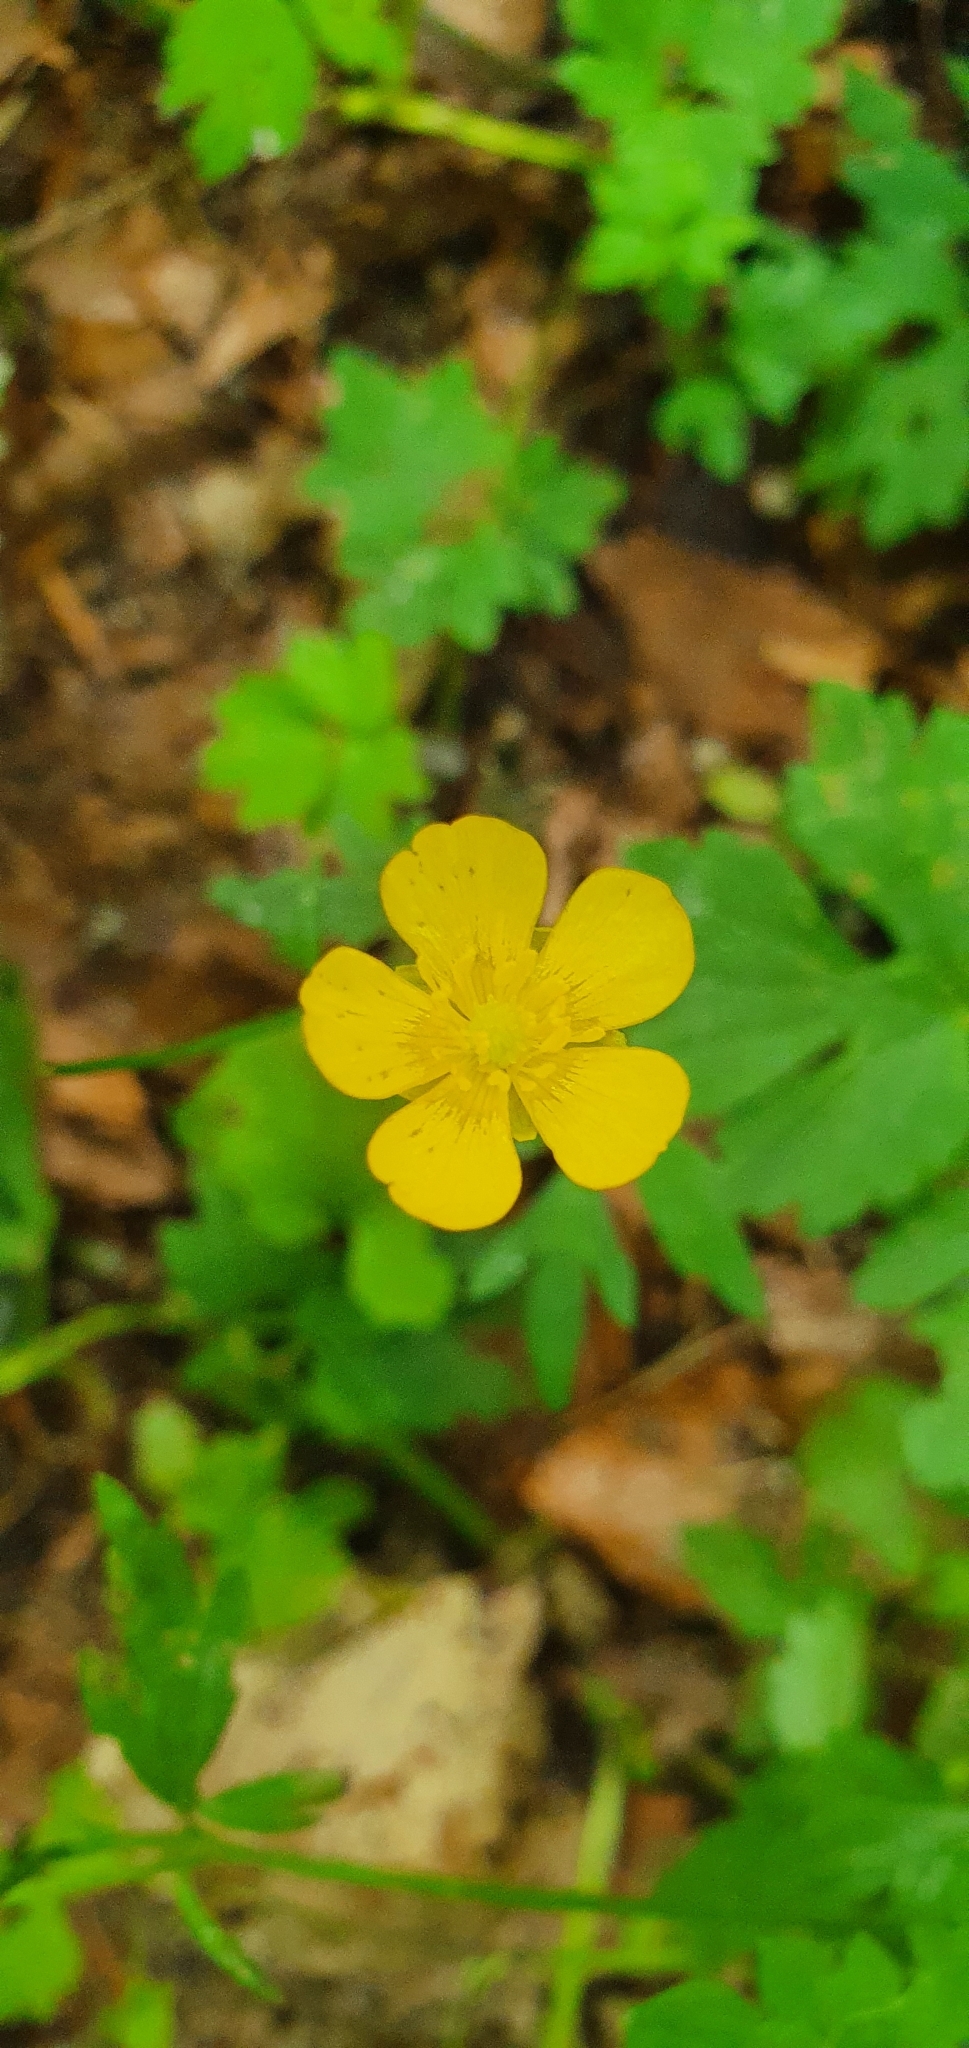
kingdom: Plantae
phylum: Tracheophyta
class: Magnoliopsida
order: Ranunculales
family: Ranunculaceae
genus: Ranunculus
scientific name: Ranunculus repens
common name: Creeping buttercup
